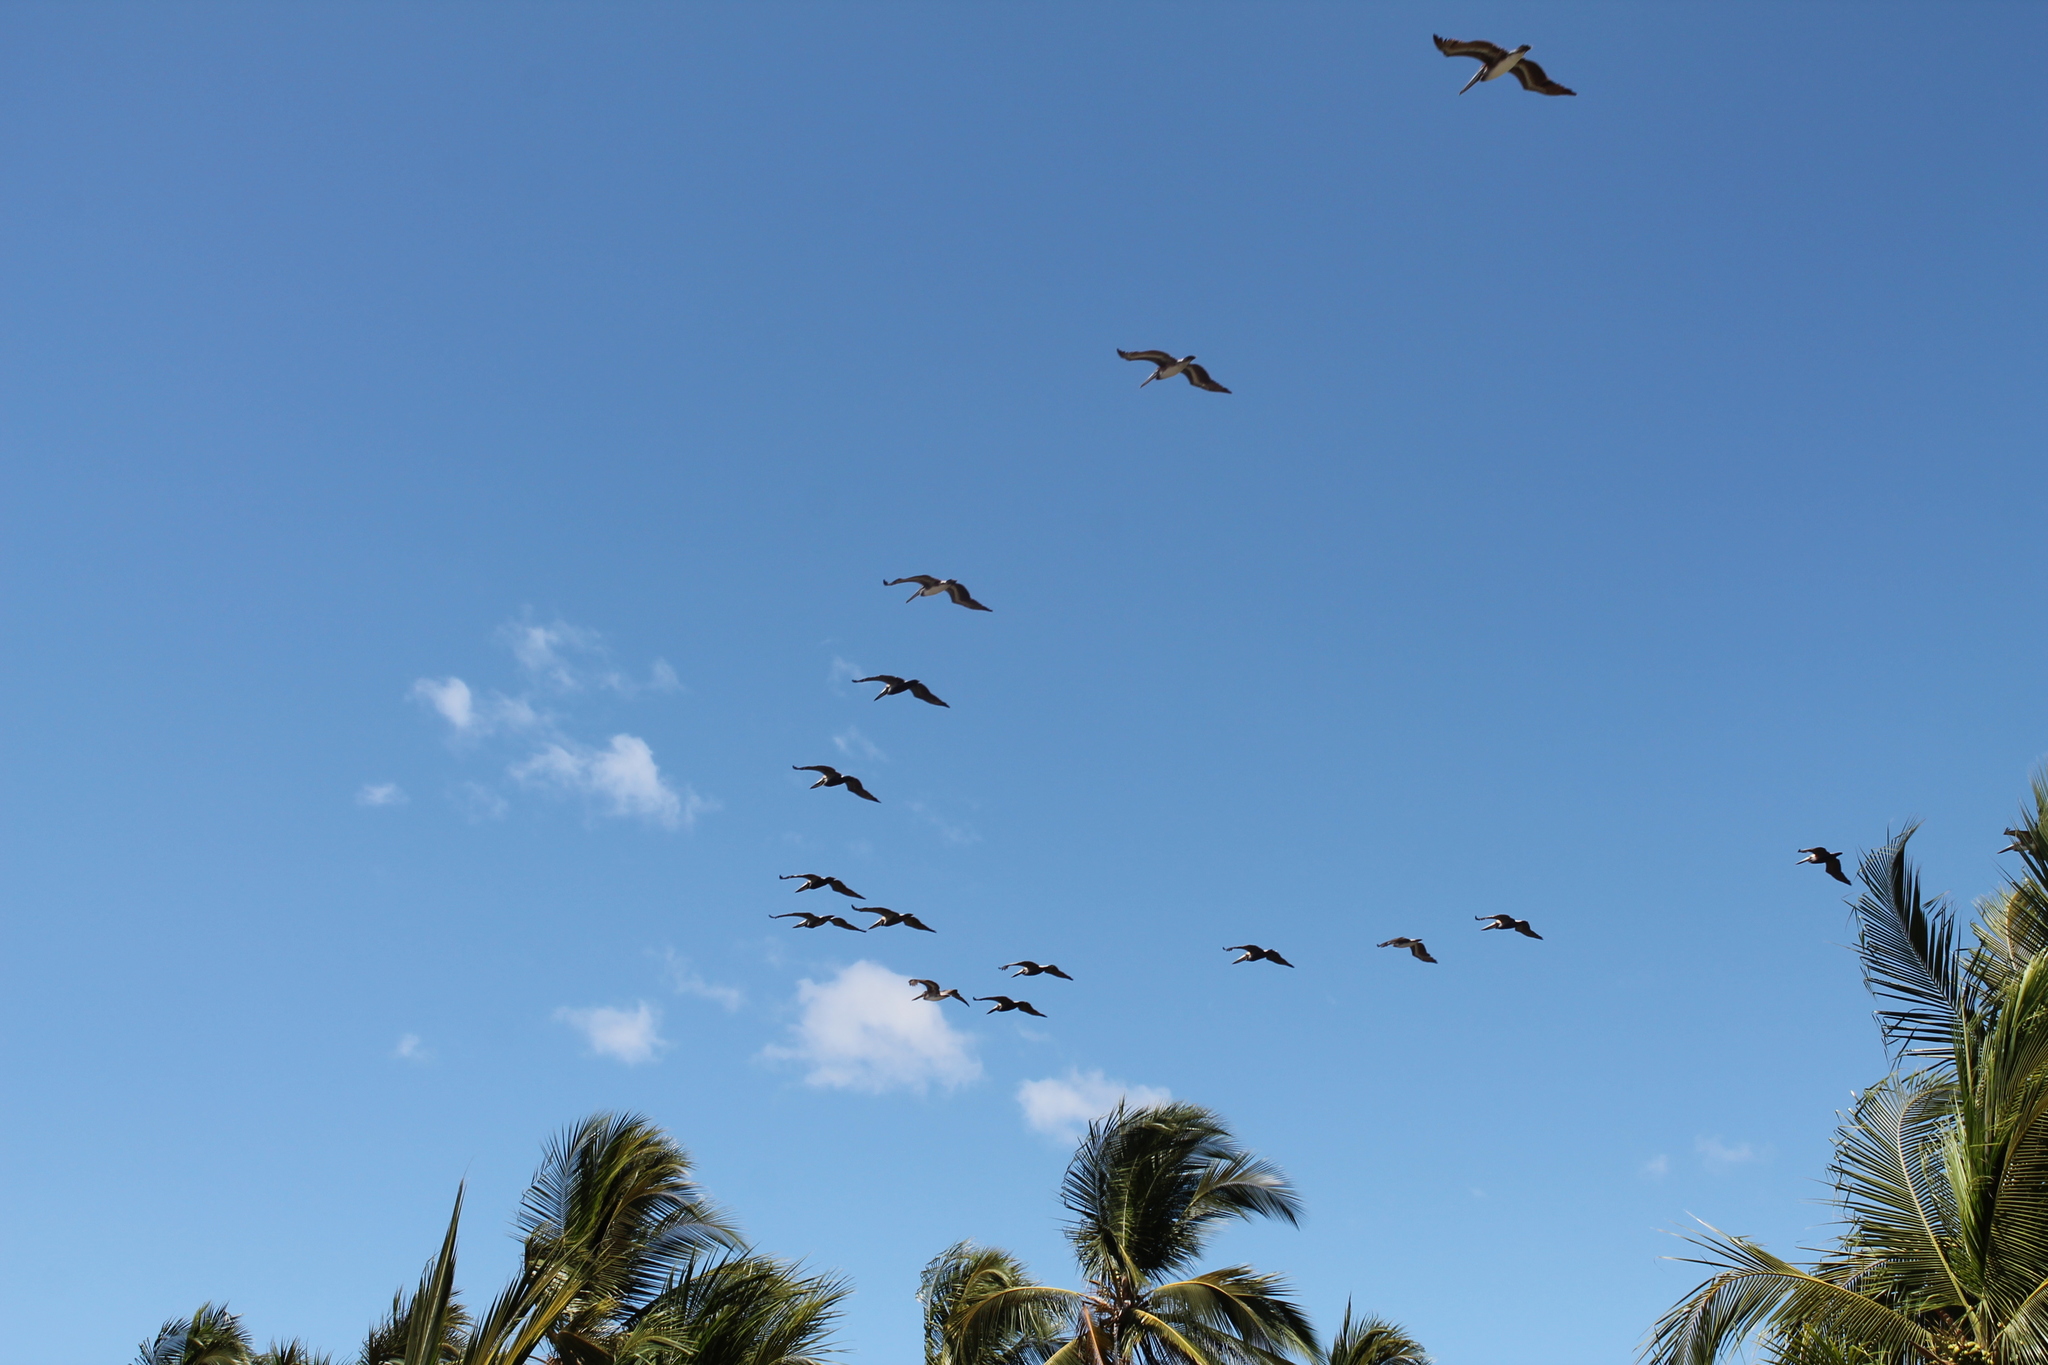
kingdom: Animalia
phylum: Chordata
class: Aves
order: Pelecaniformes
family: Pelecanidae
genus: Pelecanus
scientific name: Pelecanus occidentalis
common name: Brown pelican
